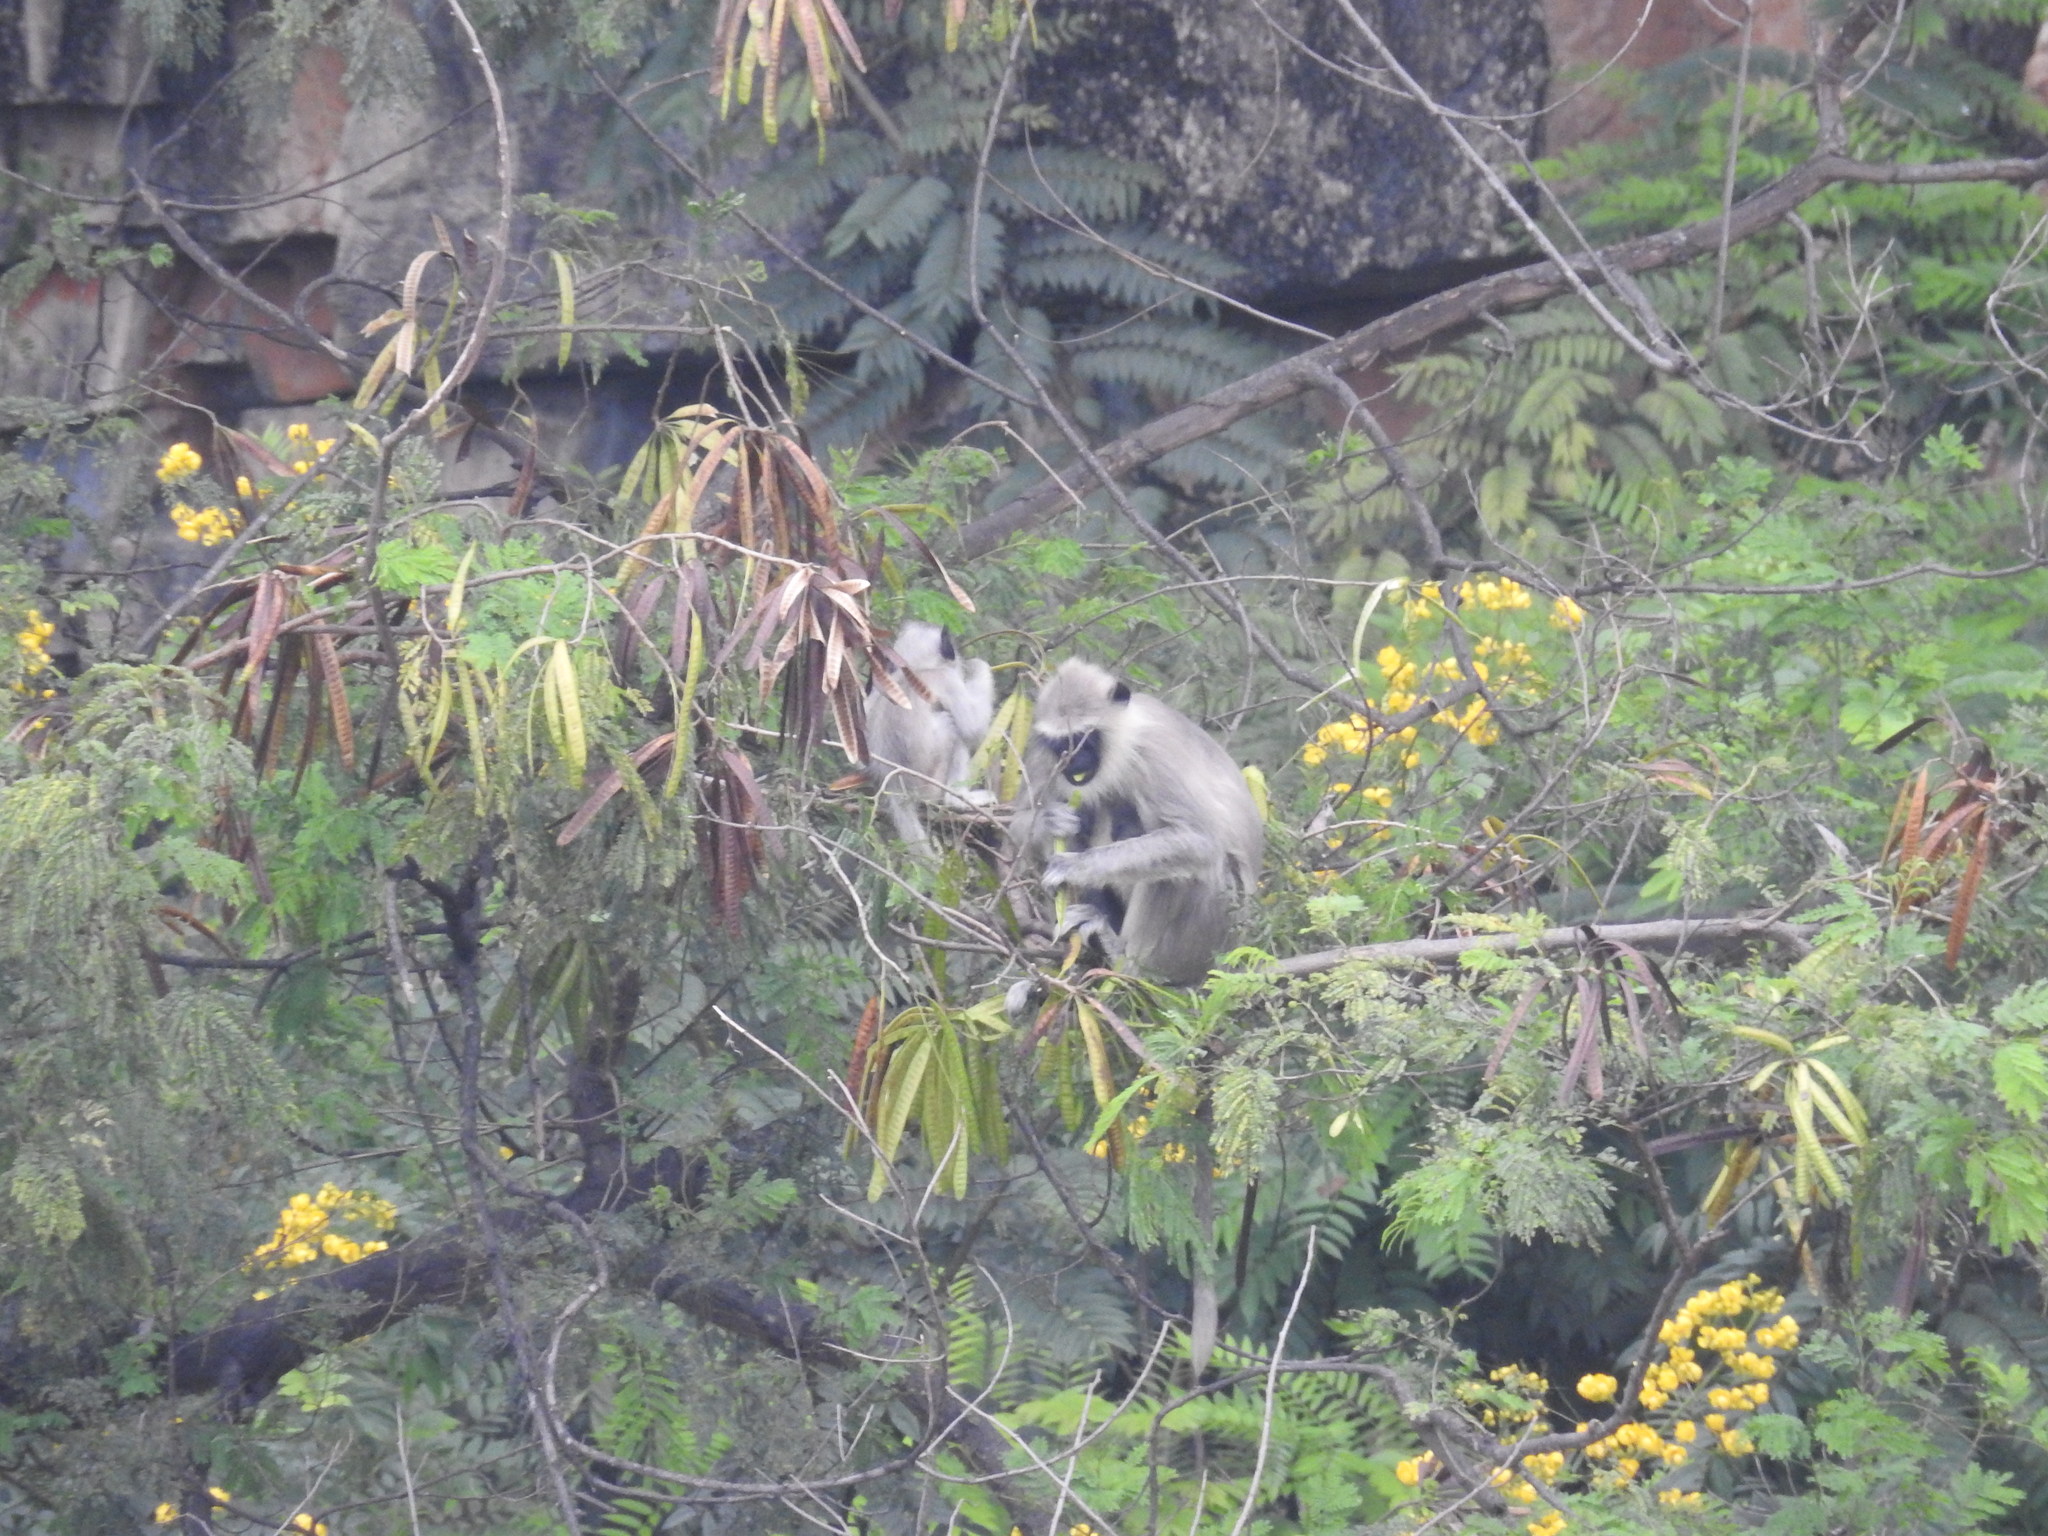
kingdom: Animalia
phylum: Chordata
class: Mammalia
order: Primates
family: Cercopithecidae
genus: Semnopithecus
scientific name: Semnopithecus priam
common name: Tufted gray langur
